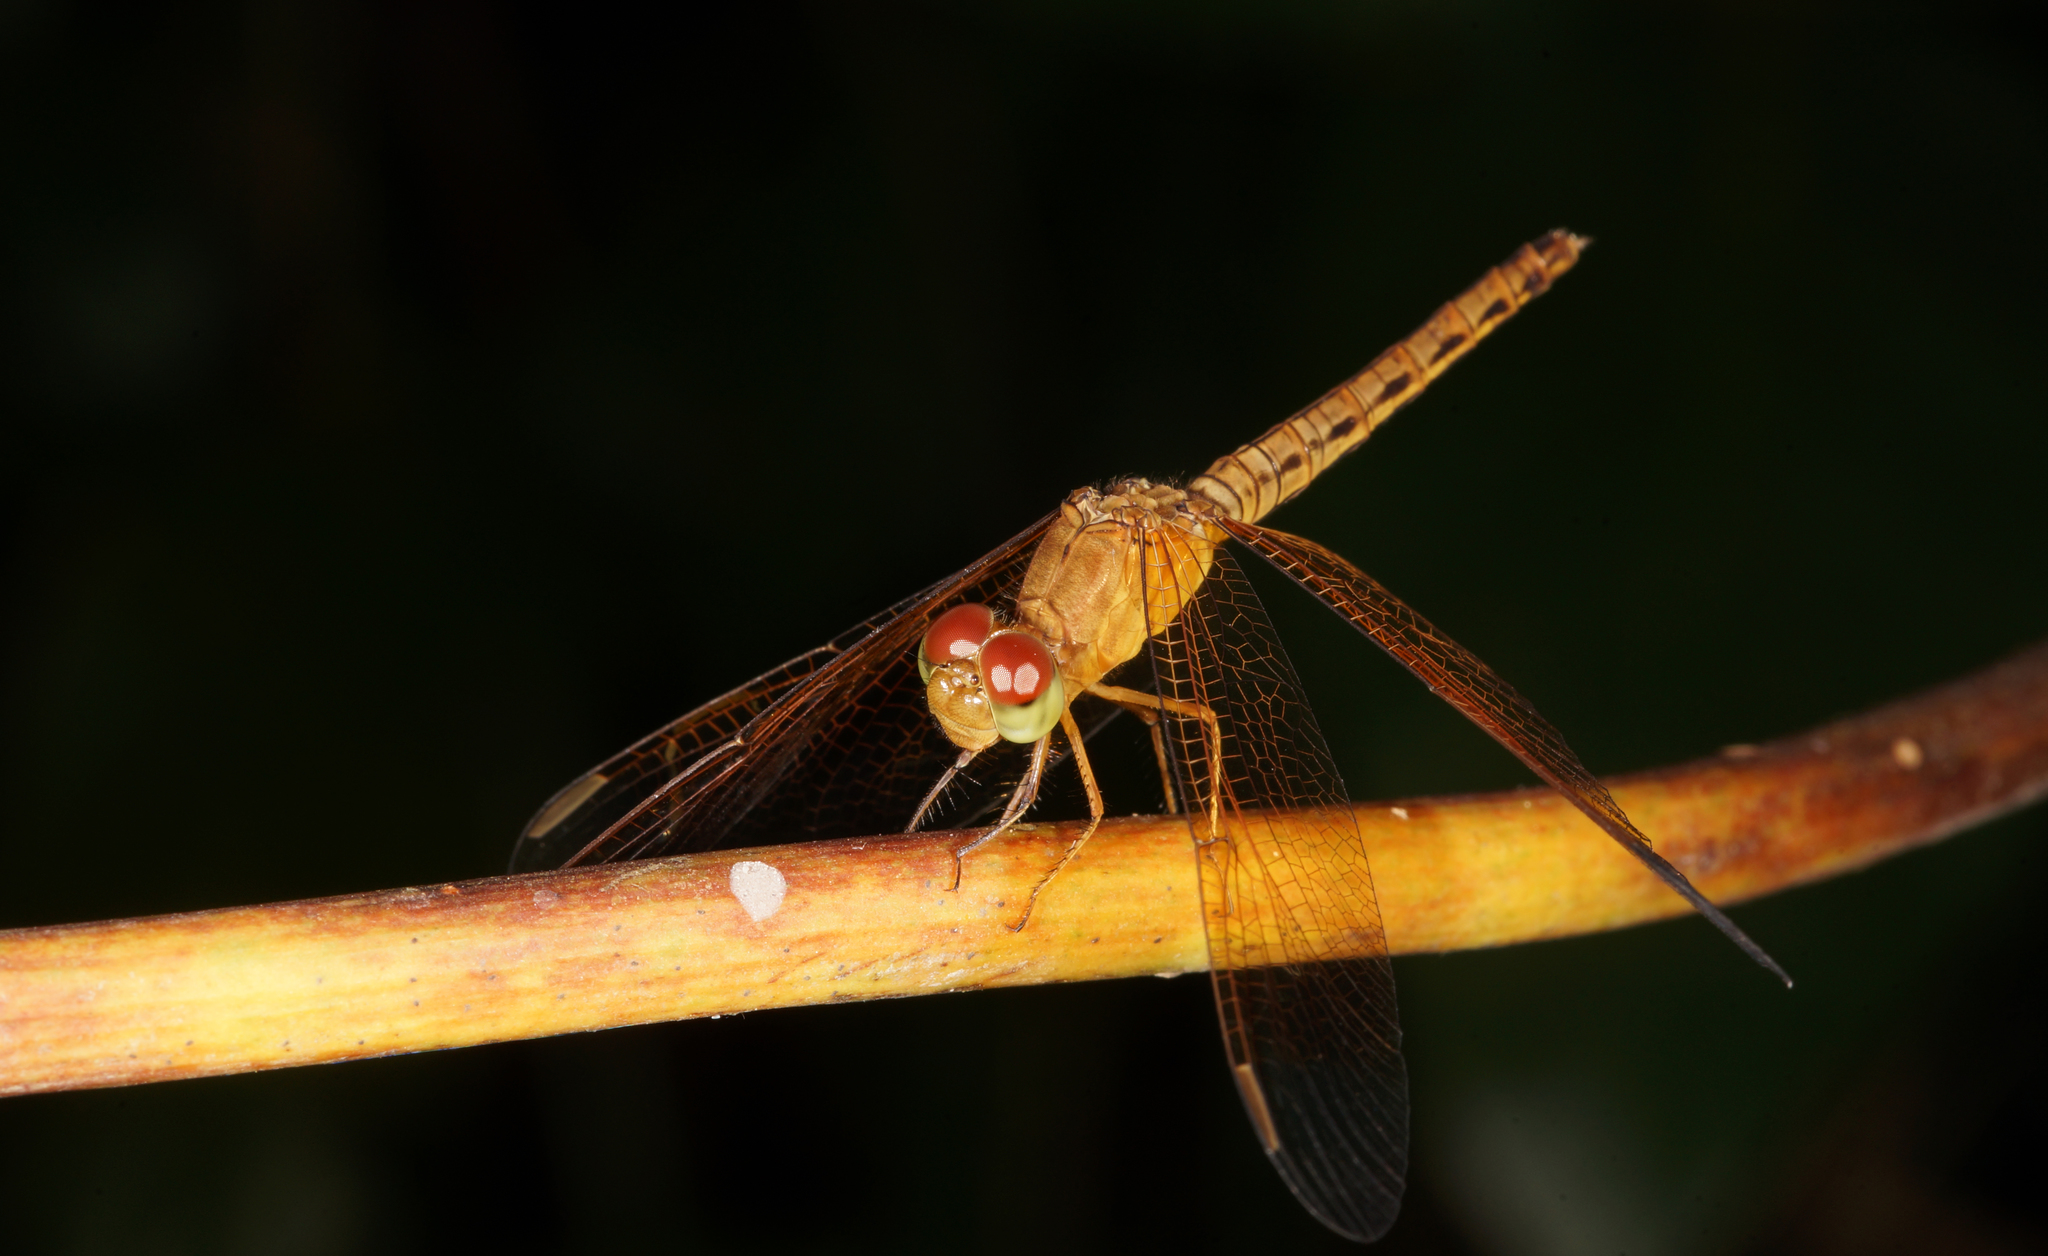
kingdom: Animalia
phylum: Arthropoda
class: Insecta
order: Odonata
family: Libellulidae
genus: Neurothemis
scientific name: Neurothemis fluctuans
